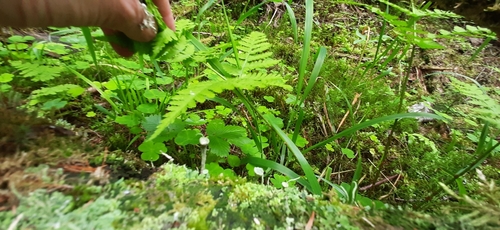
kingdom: Fungi
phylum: Ascomycota
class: Lecanoromycetes
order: Lecanorales
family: Cladoniaceae
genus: Cladonia
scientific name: Cladonia
